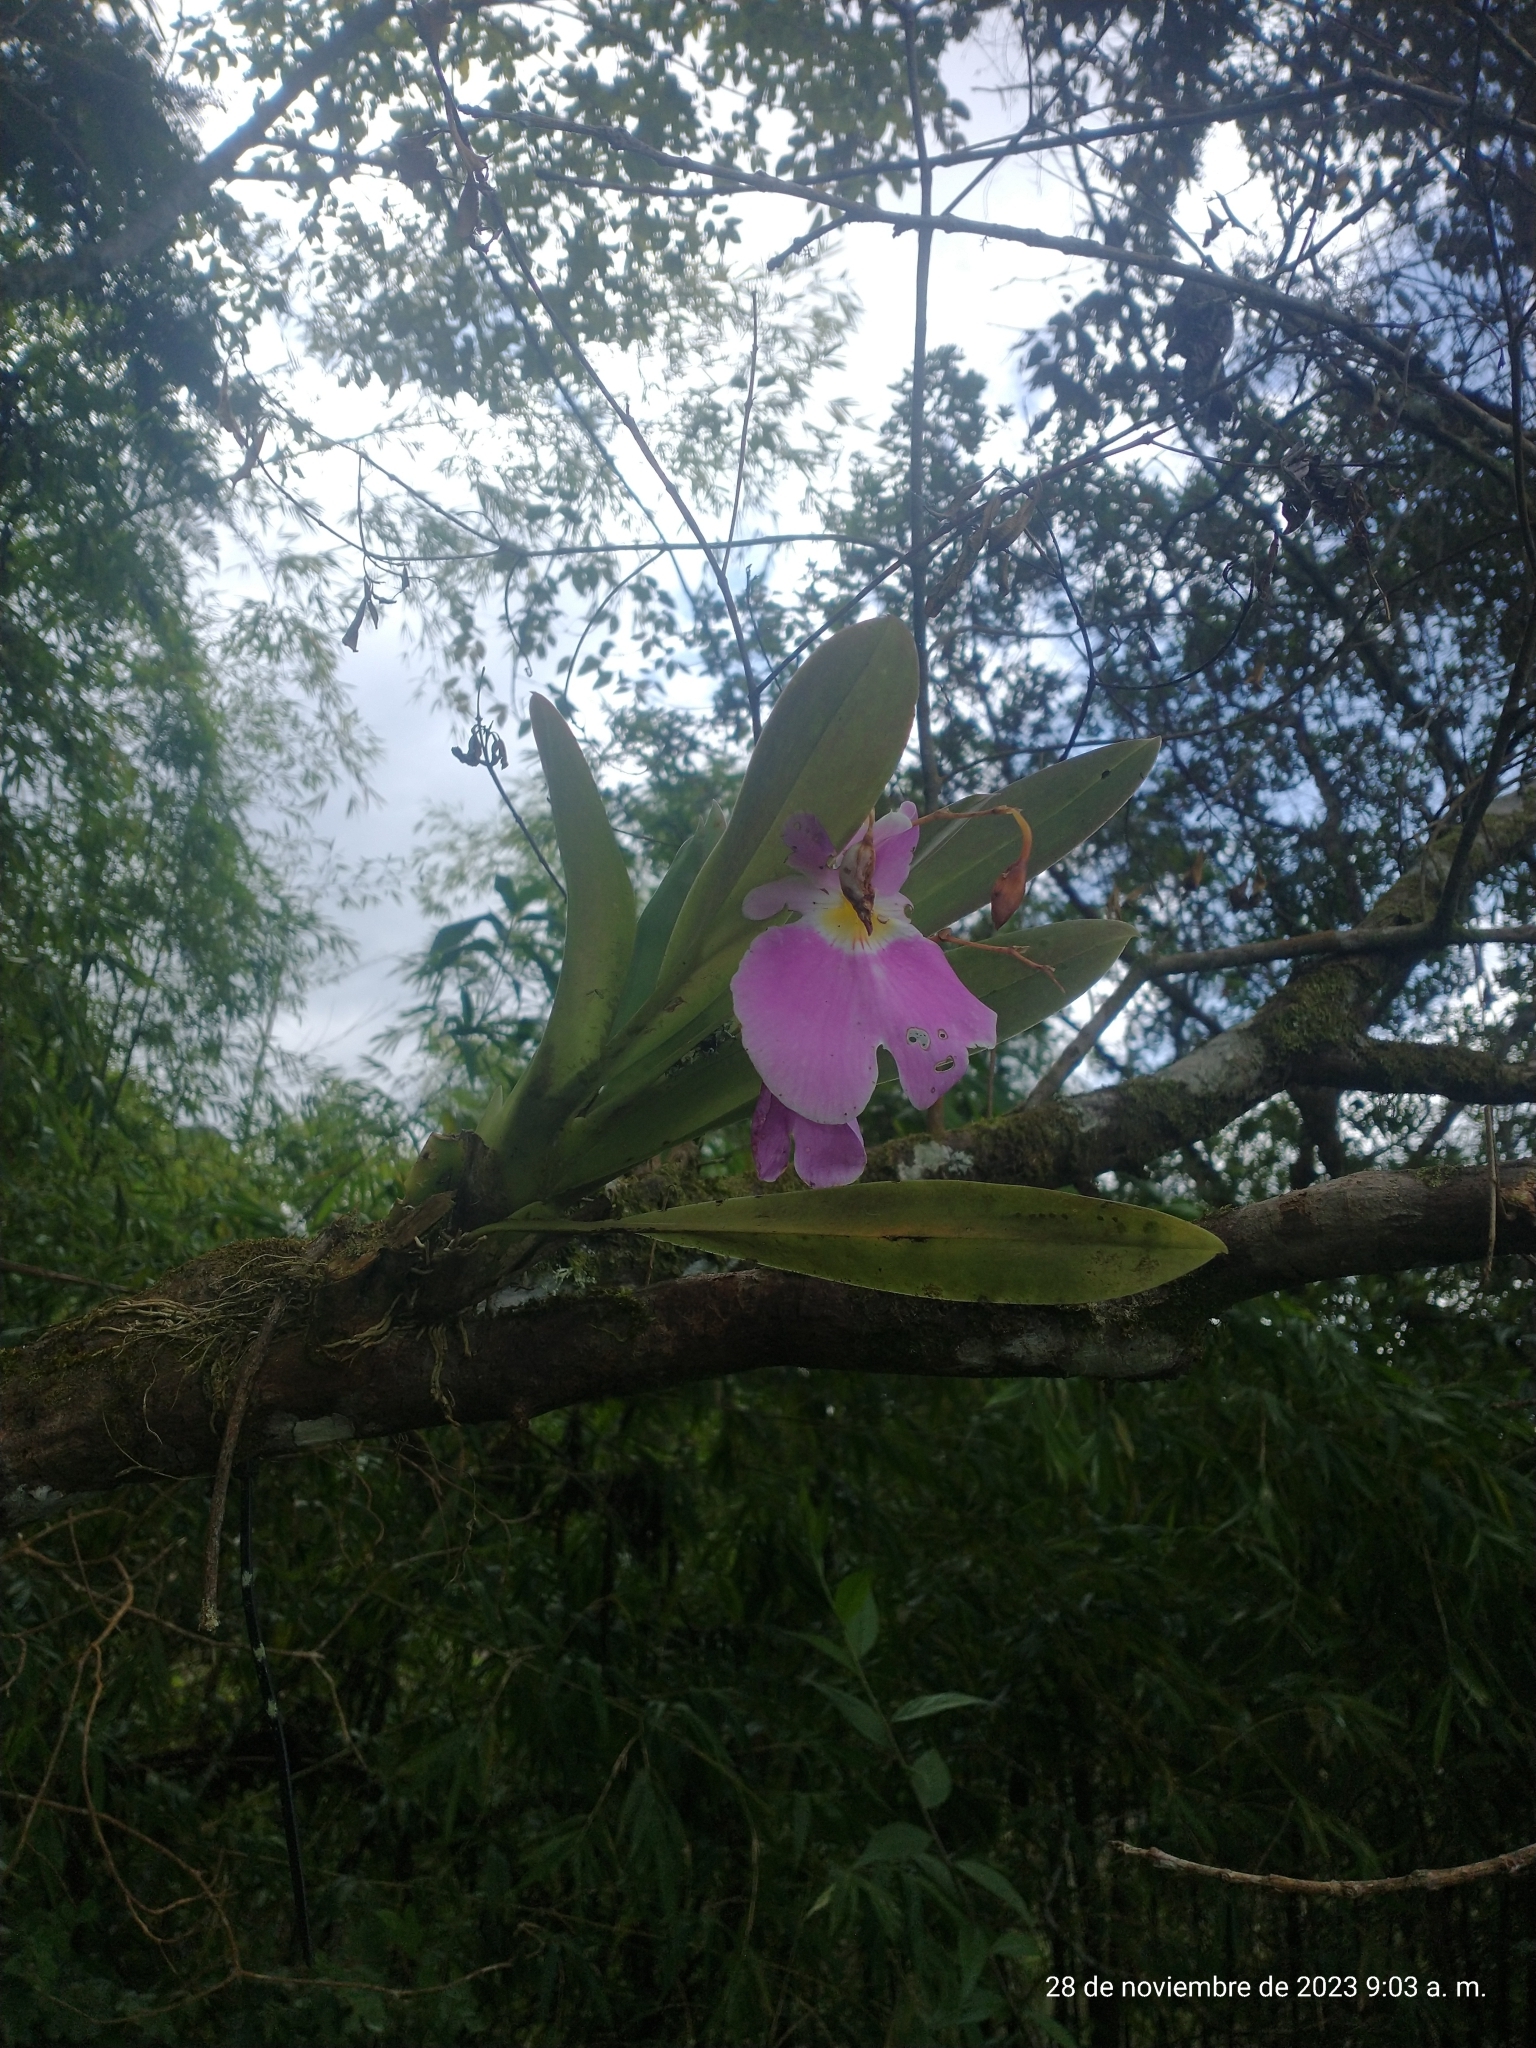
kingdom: Plantae
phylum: Tracheophyta
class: Liliopsida
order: Asparagales
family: Orchidaceae
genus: Miltoniopsis
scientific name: Miltoniopsis vexillaria
